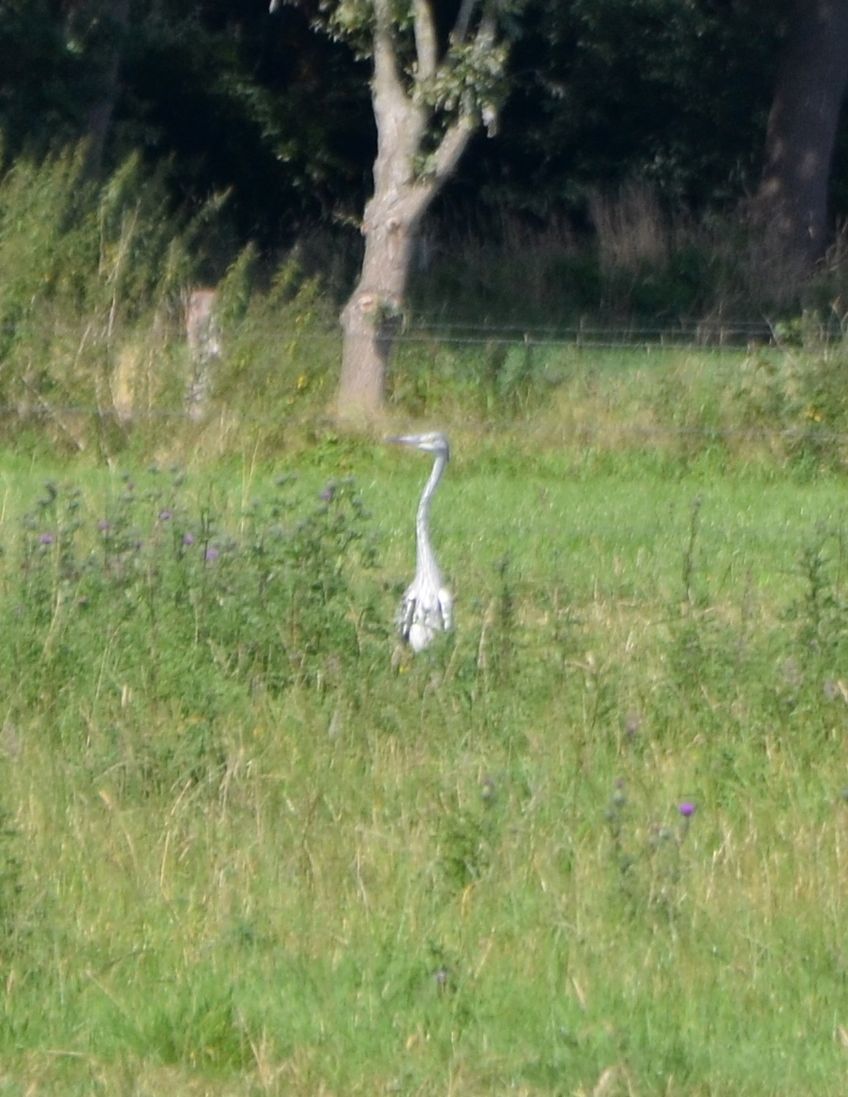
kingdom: Animalia
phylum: Chordata
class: Aves
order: Pelecaniformes
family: Ardeidae
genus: Ardea
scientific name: Ardea cinerea
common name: Grey heron
